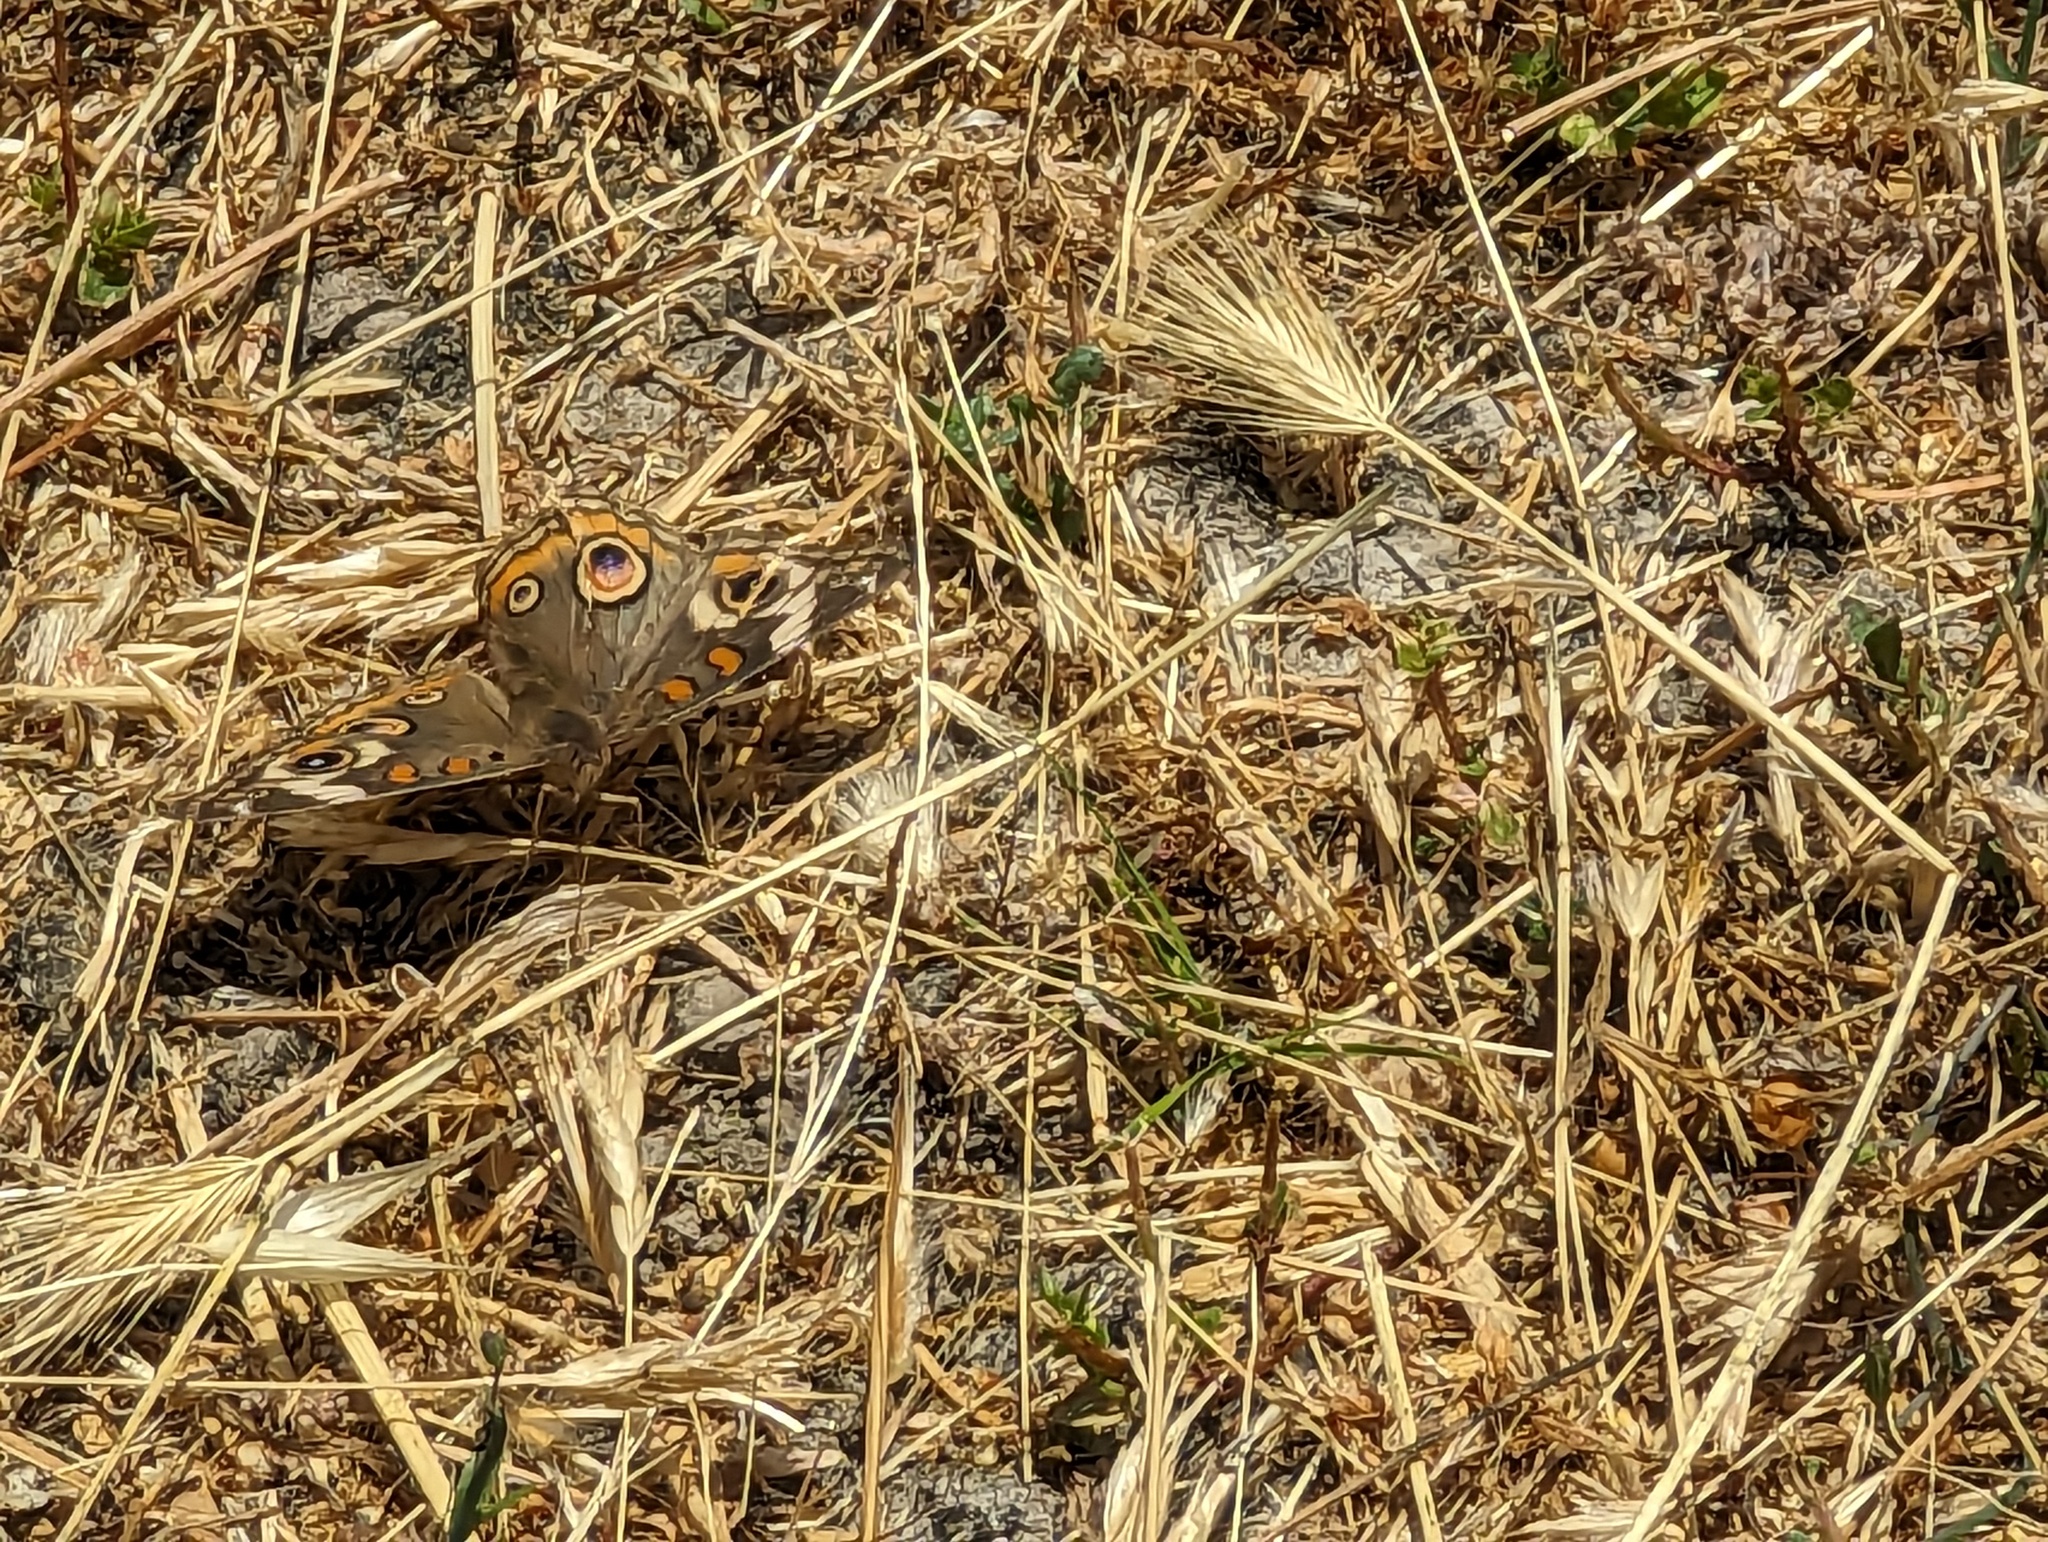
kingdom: Animalia
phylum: Arthropoda
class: Insecta
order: Lepidoptera
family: Nymphalidae
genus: Junonia
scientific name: Junonia grisea
